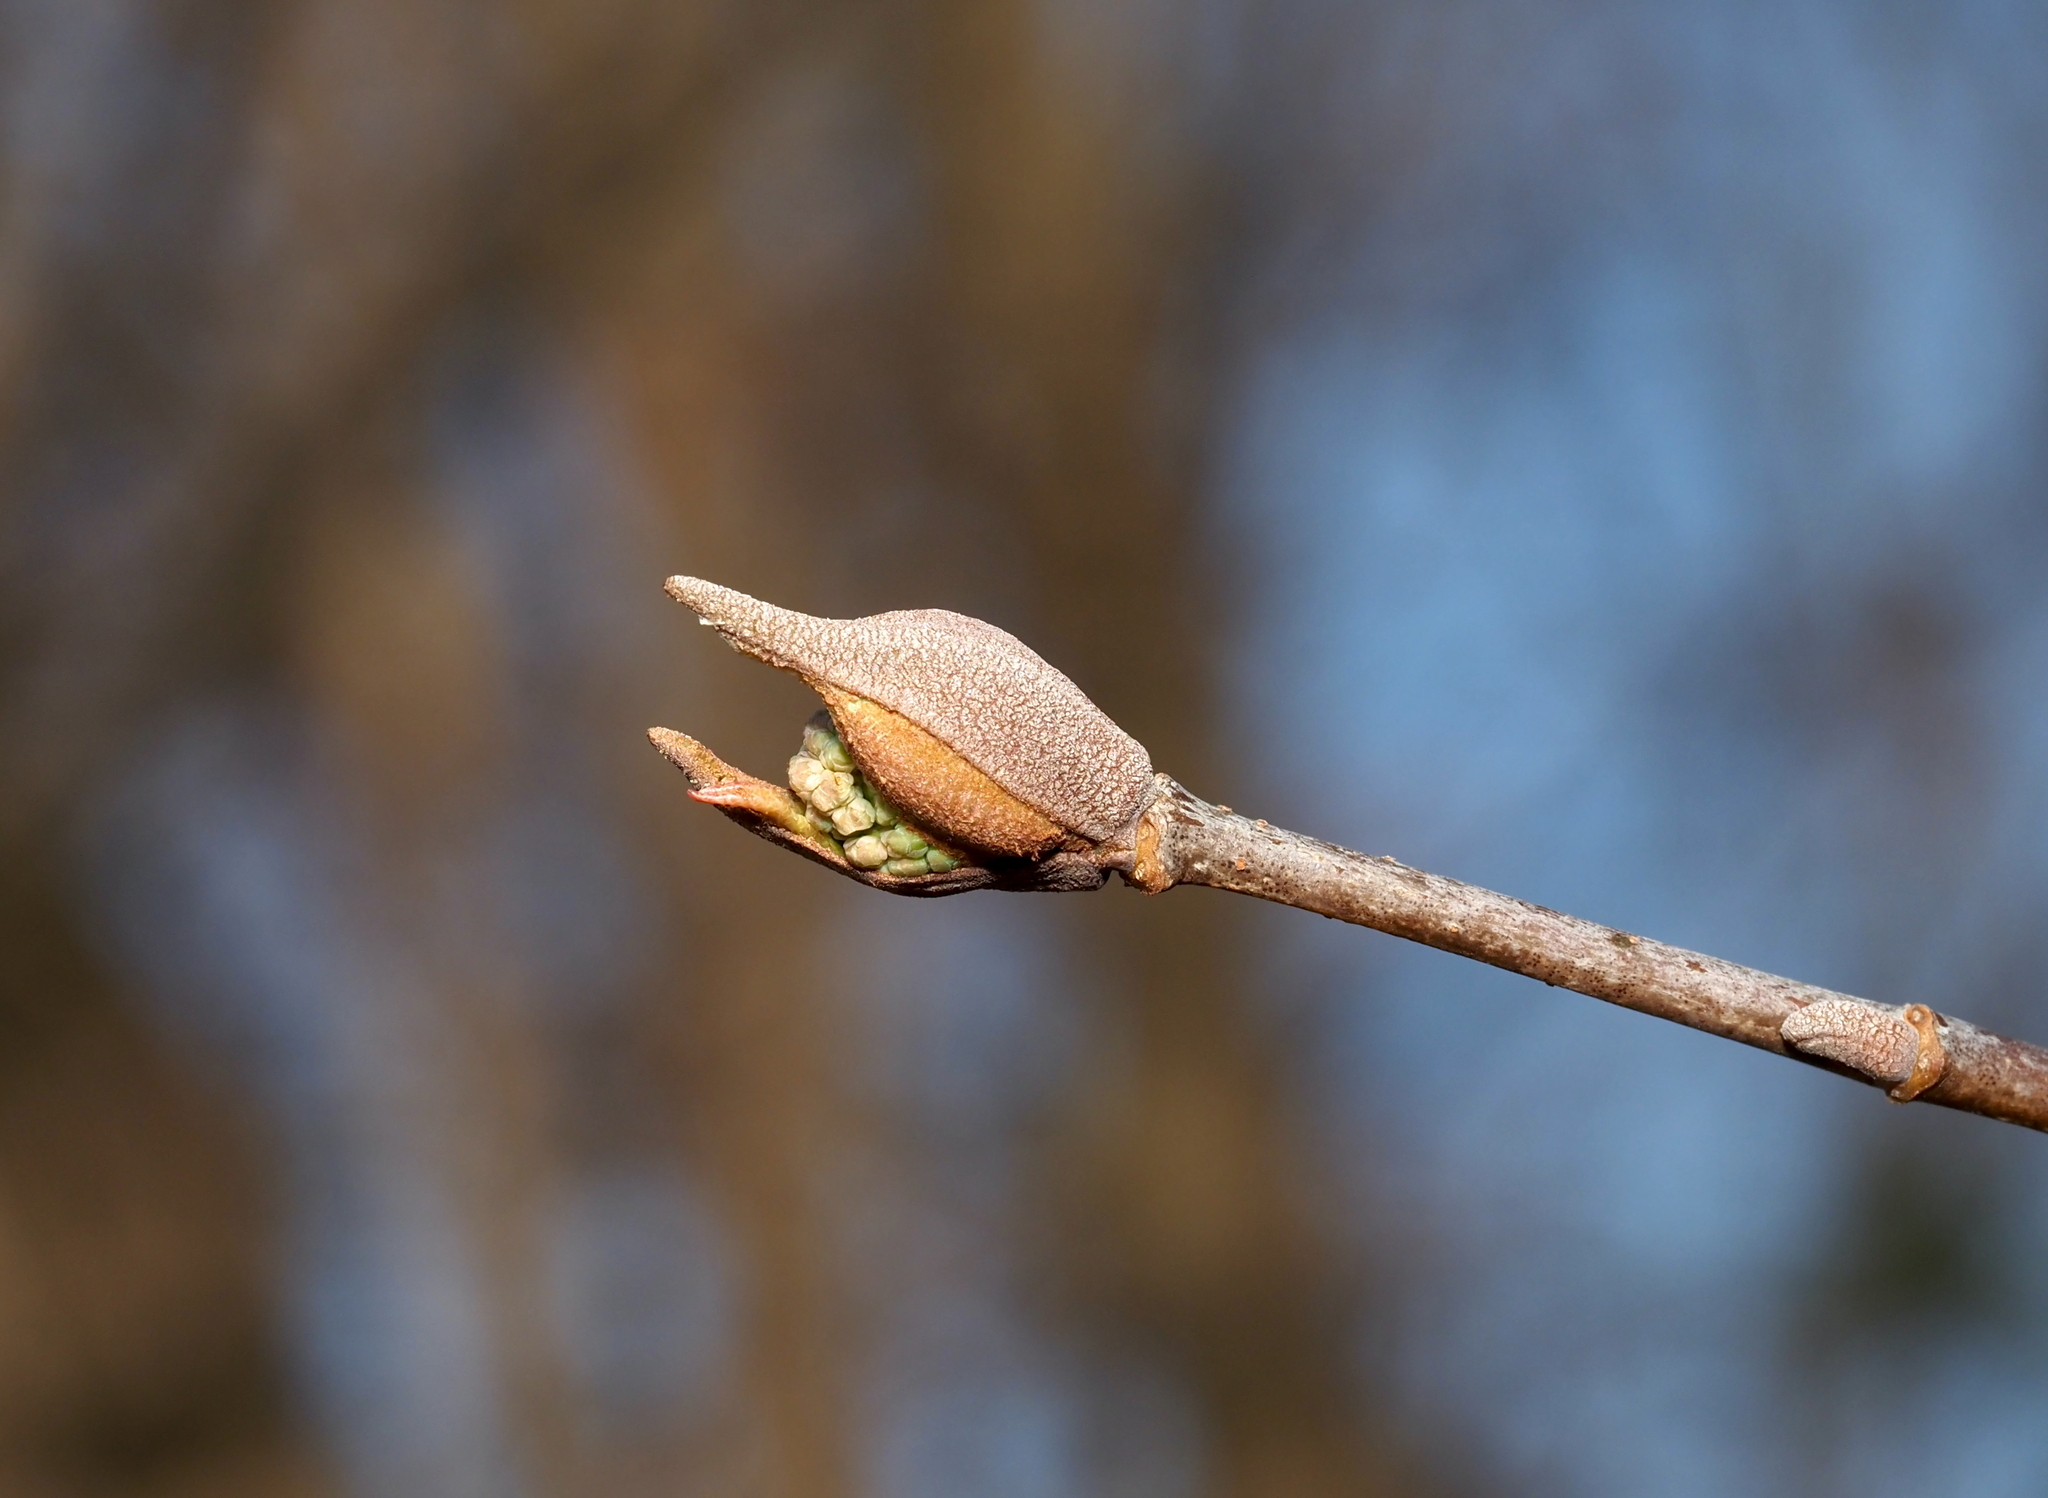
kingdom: Plantae
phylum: Tracheophyta
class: Magnoliopsida
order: Dipsacales
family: Viburnaceae
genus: Viburnum
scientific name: Viburnum prunifolium
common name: Black haw
